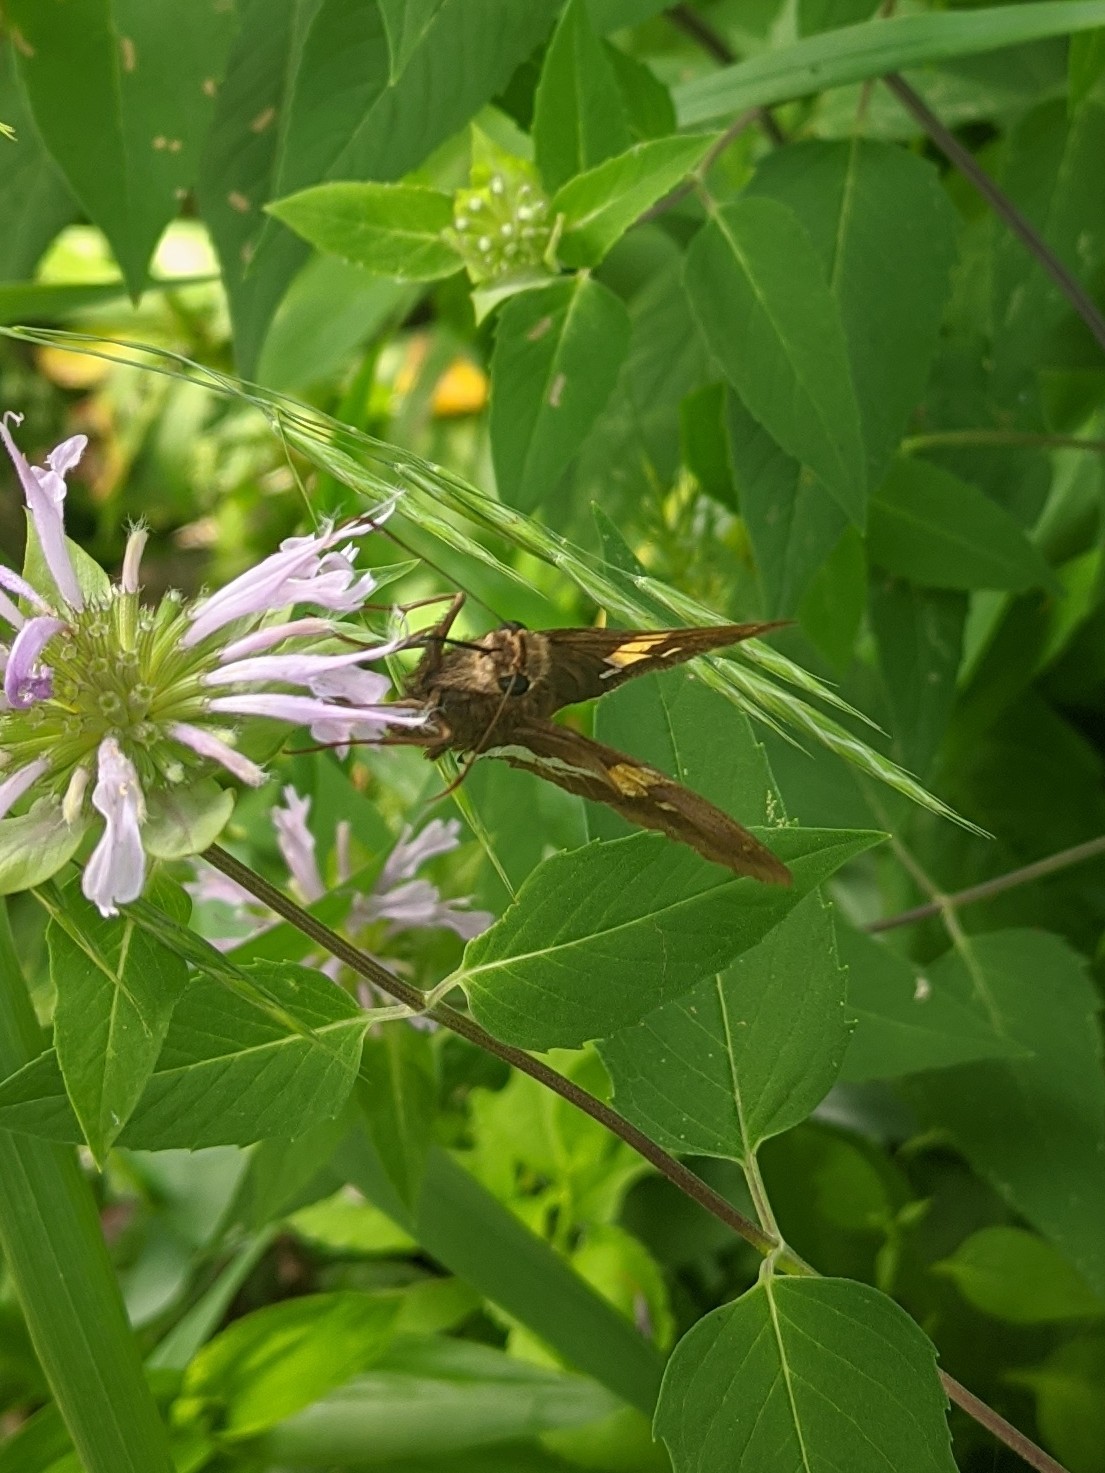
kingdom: Animalia
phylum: Arthropoda
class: Insecta
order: Lepidoptera
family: Hesperiidae
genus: Epargyreus
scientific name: Epargyreus clarus
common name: Silver-spotted skipper
